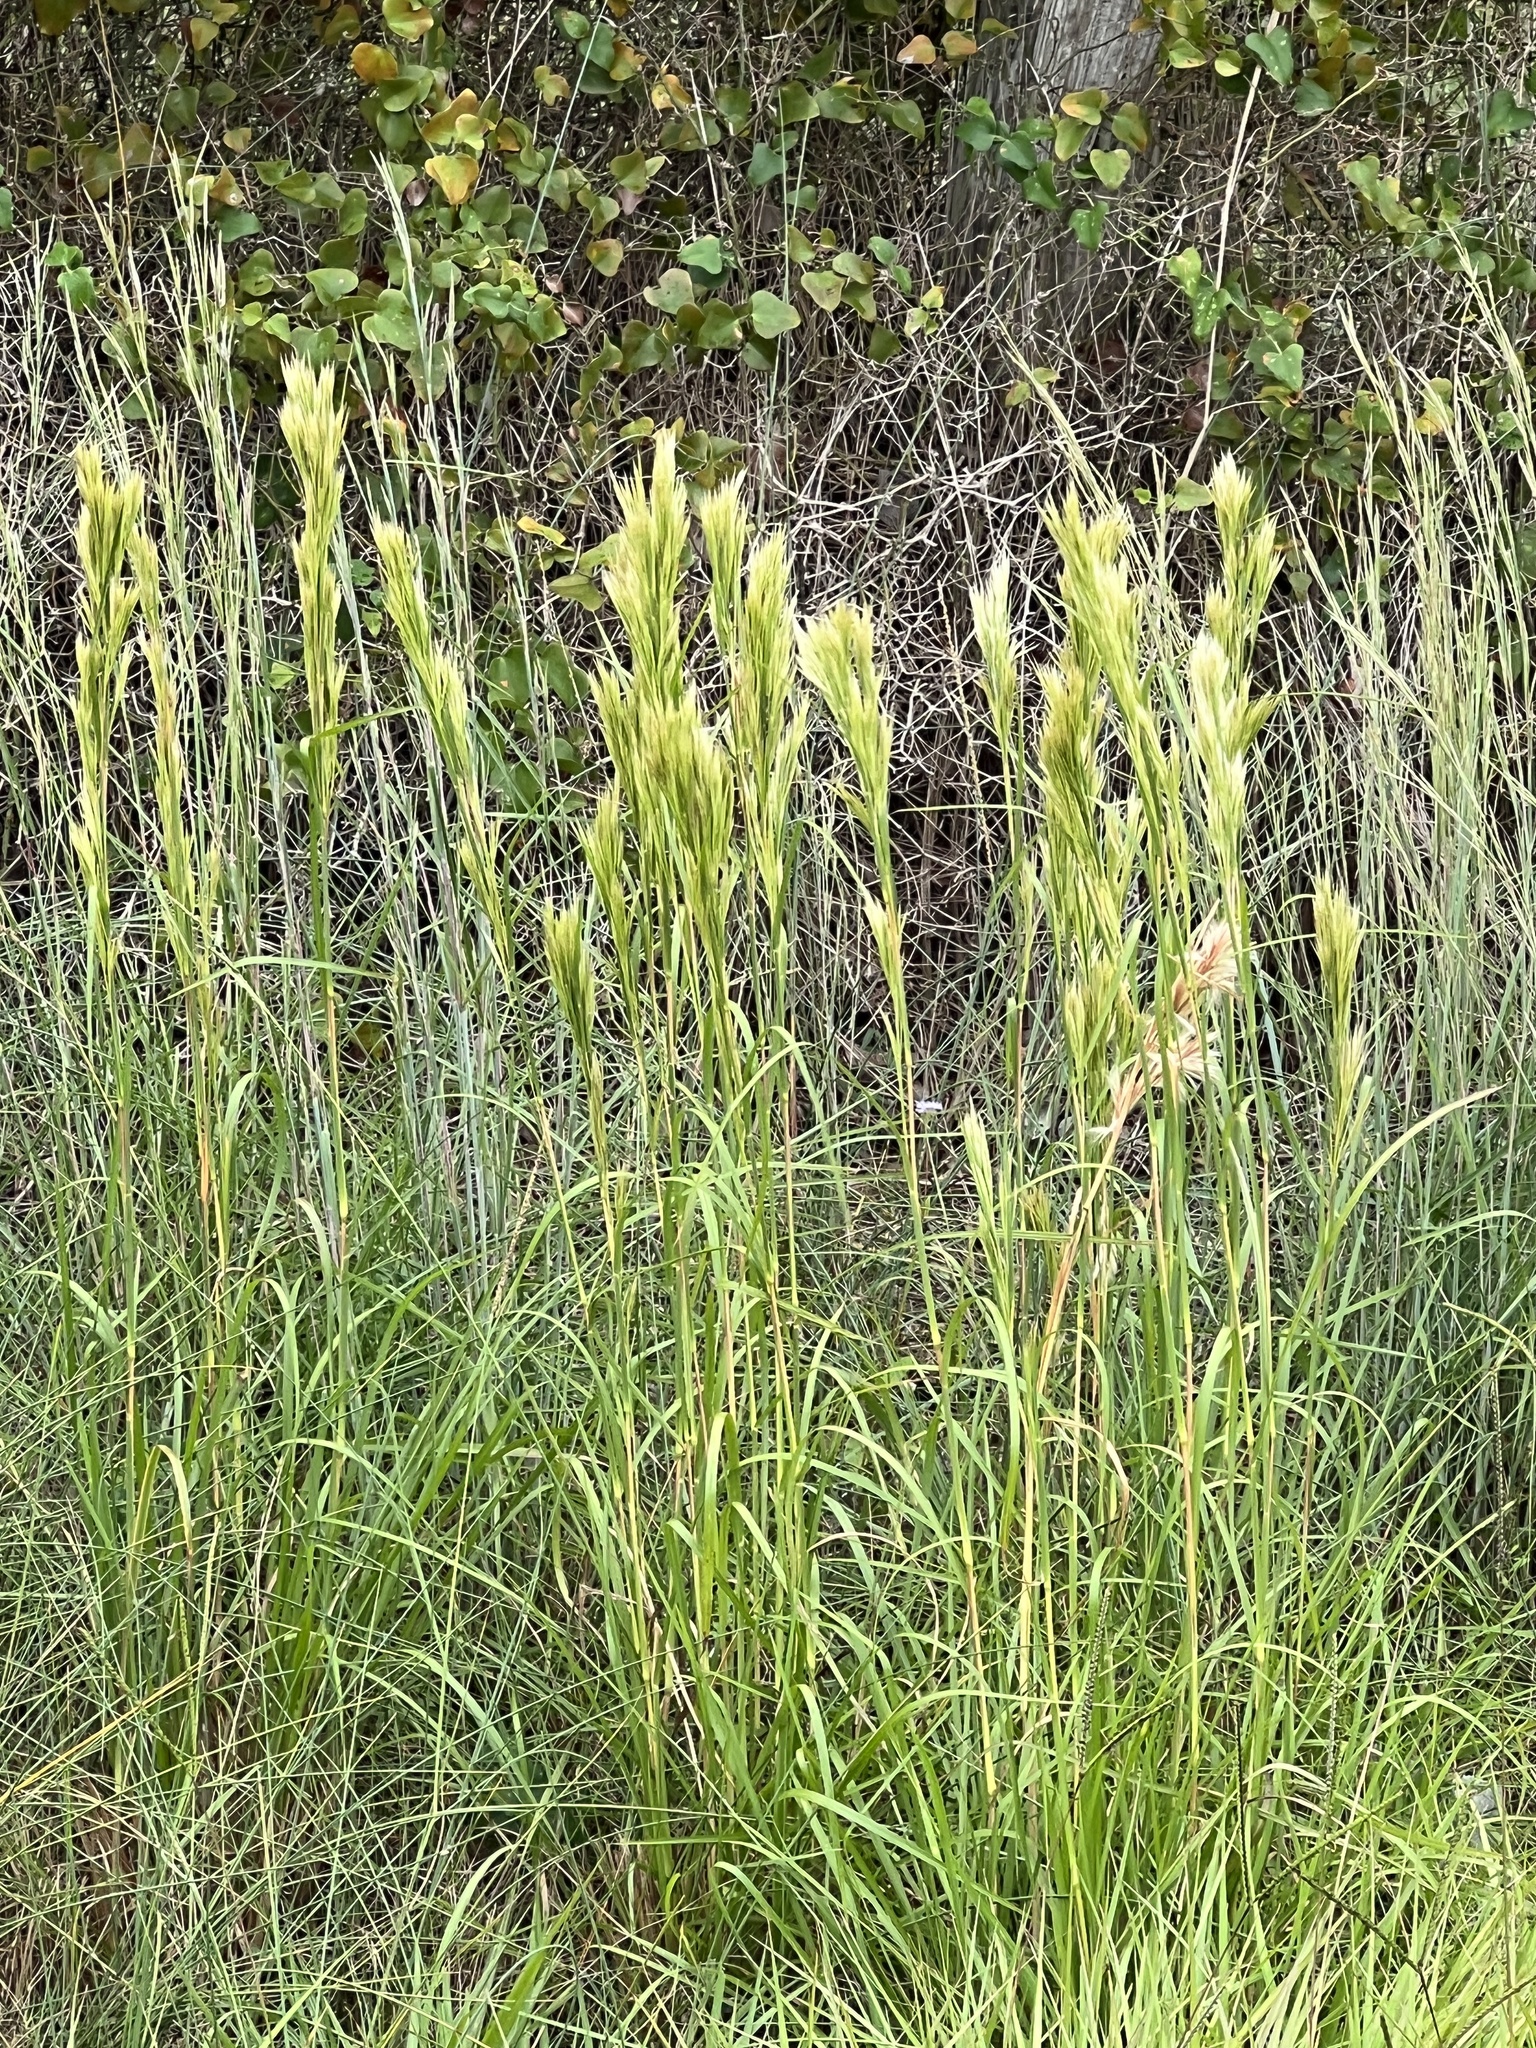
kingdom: Plantae
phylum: Tracheophyta
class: Liliopsida
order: Poales
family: Poaceae
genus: Andropogon
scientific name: Andropogon tenuispatheus
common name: Bushy bluestem
